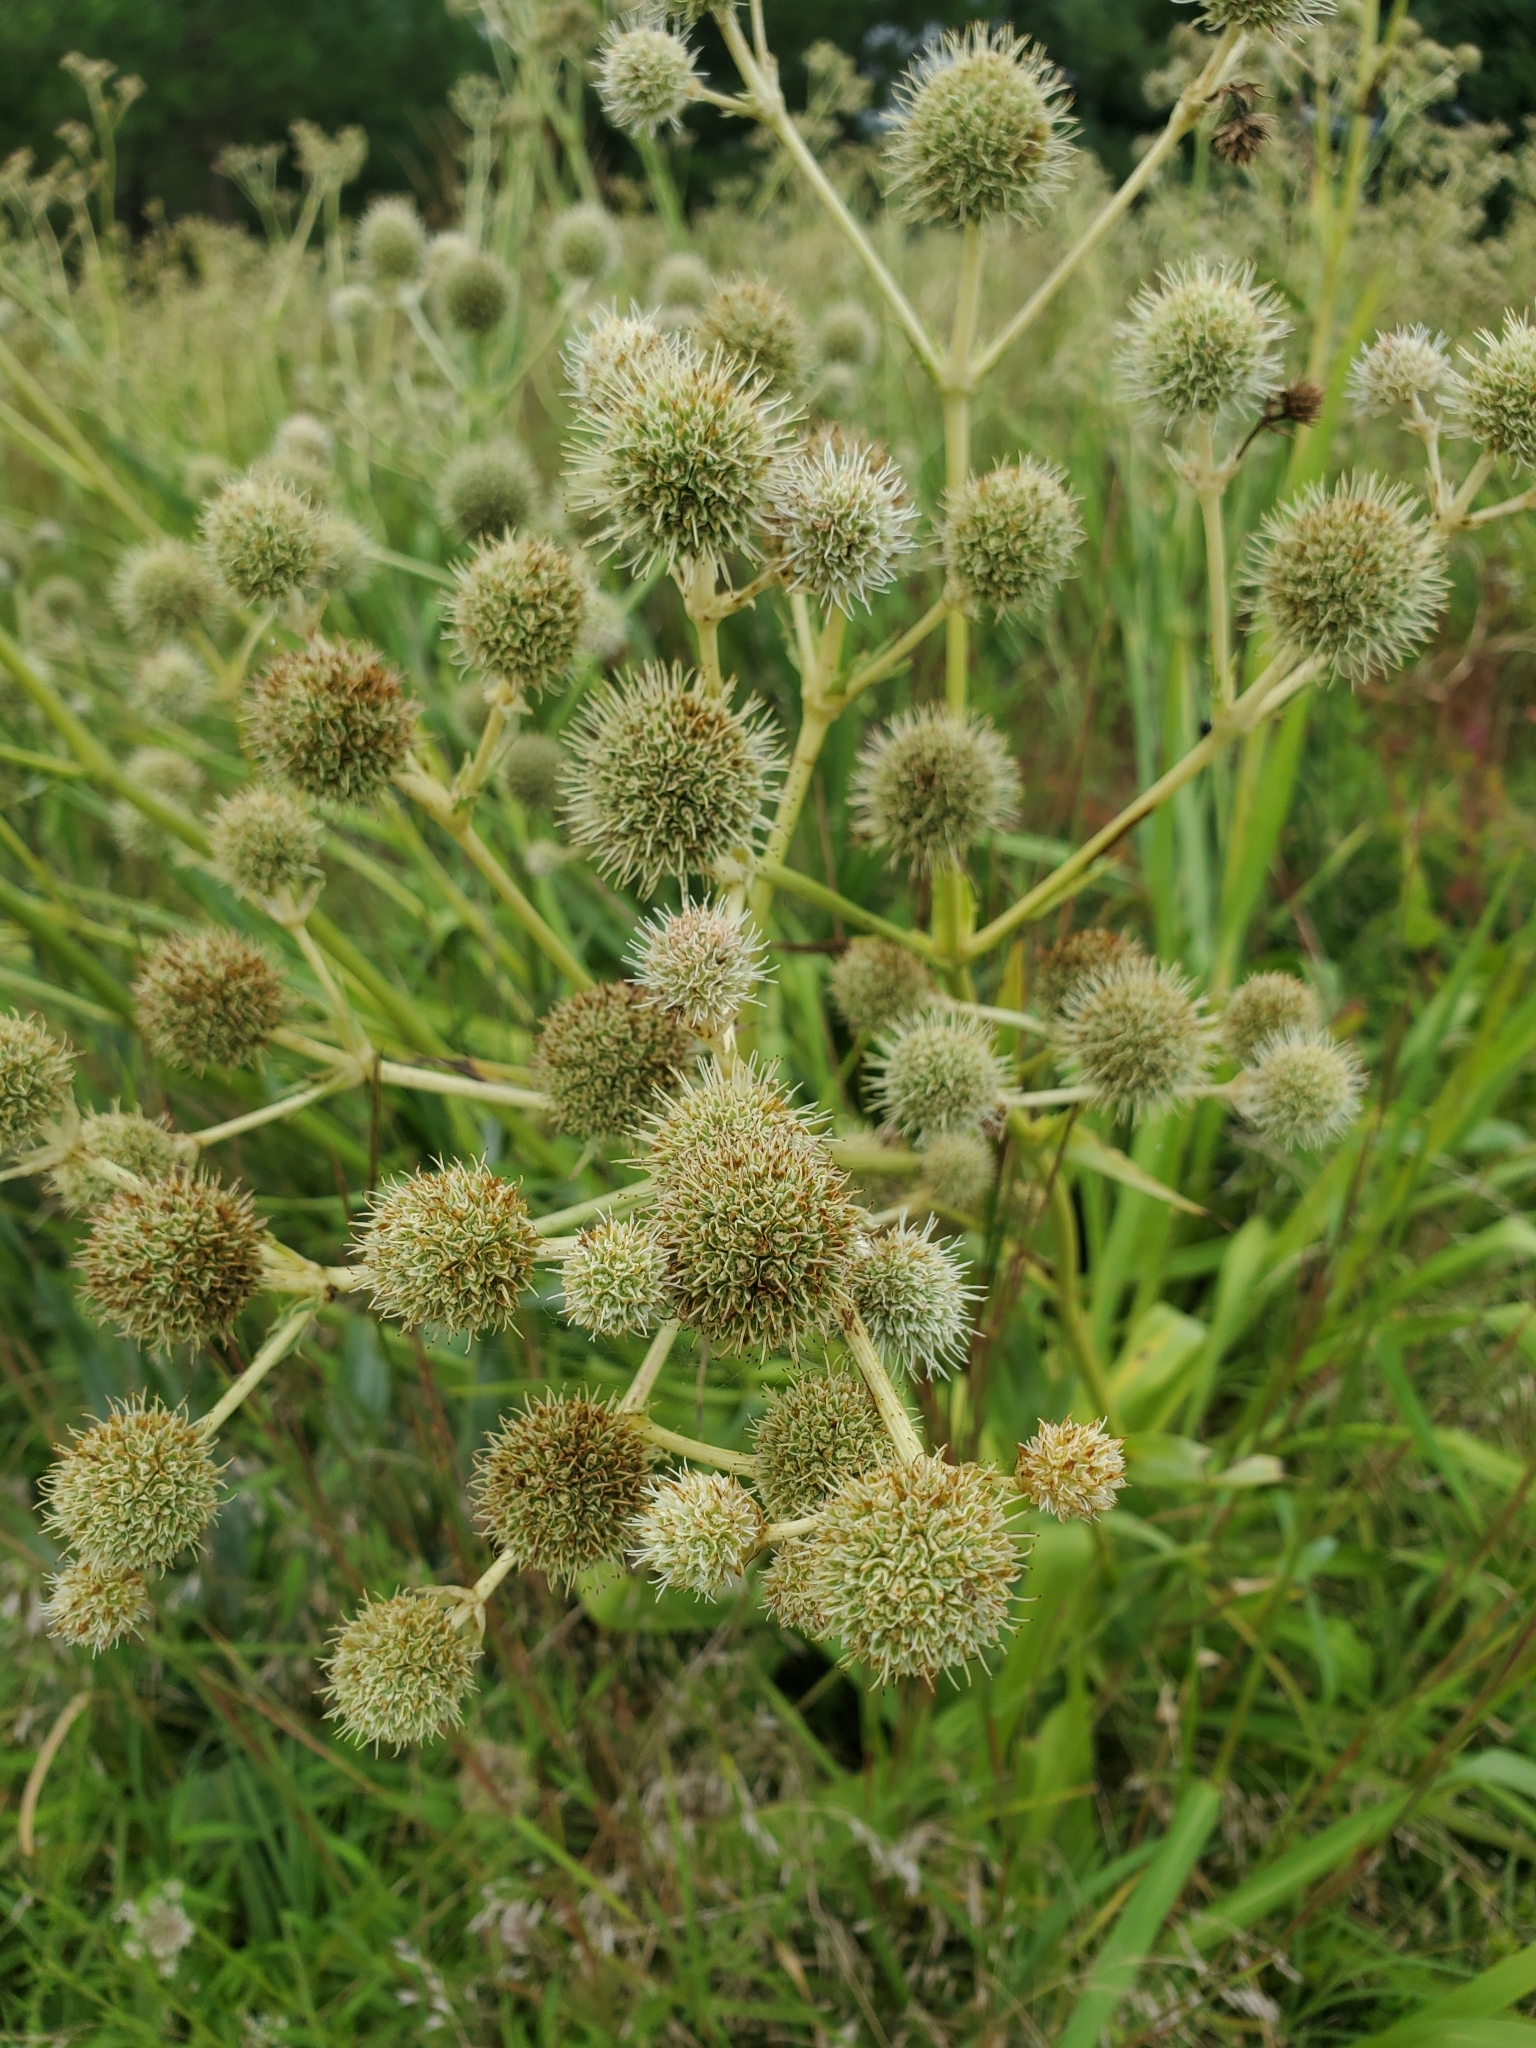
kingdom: Plantae
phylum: Tracheophyta
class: Magnoliopsida
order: Apiales
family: Apiaceae
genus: Eryngium
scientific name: Eryngium yuccifolium
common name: Button eryngo
